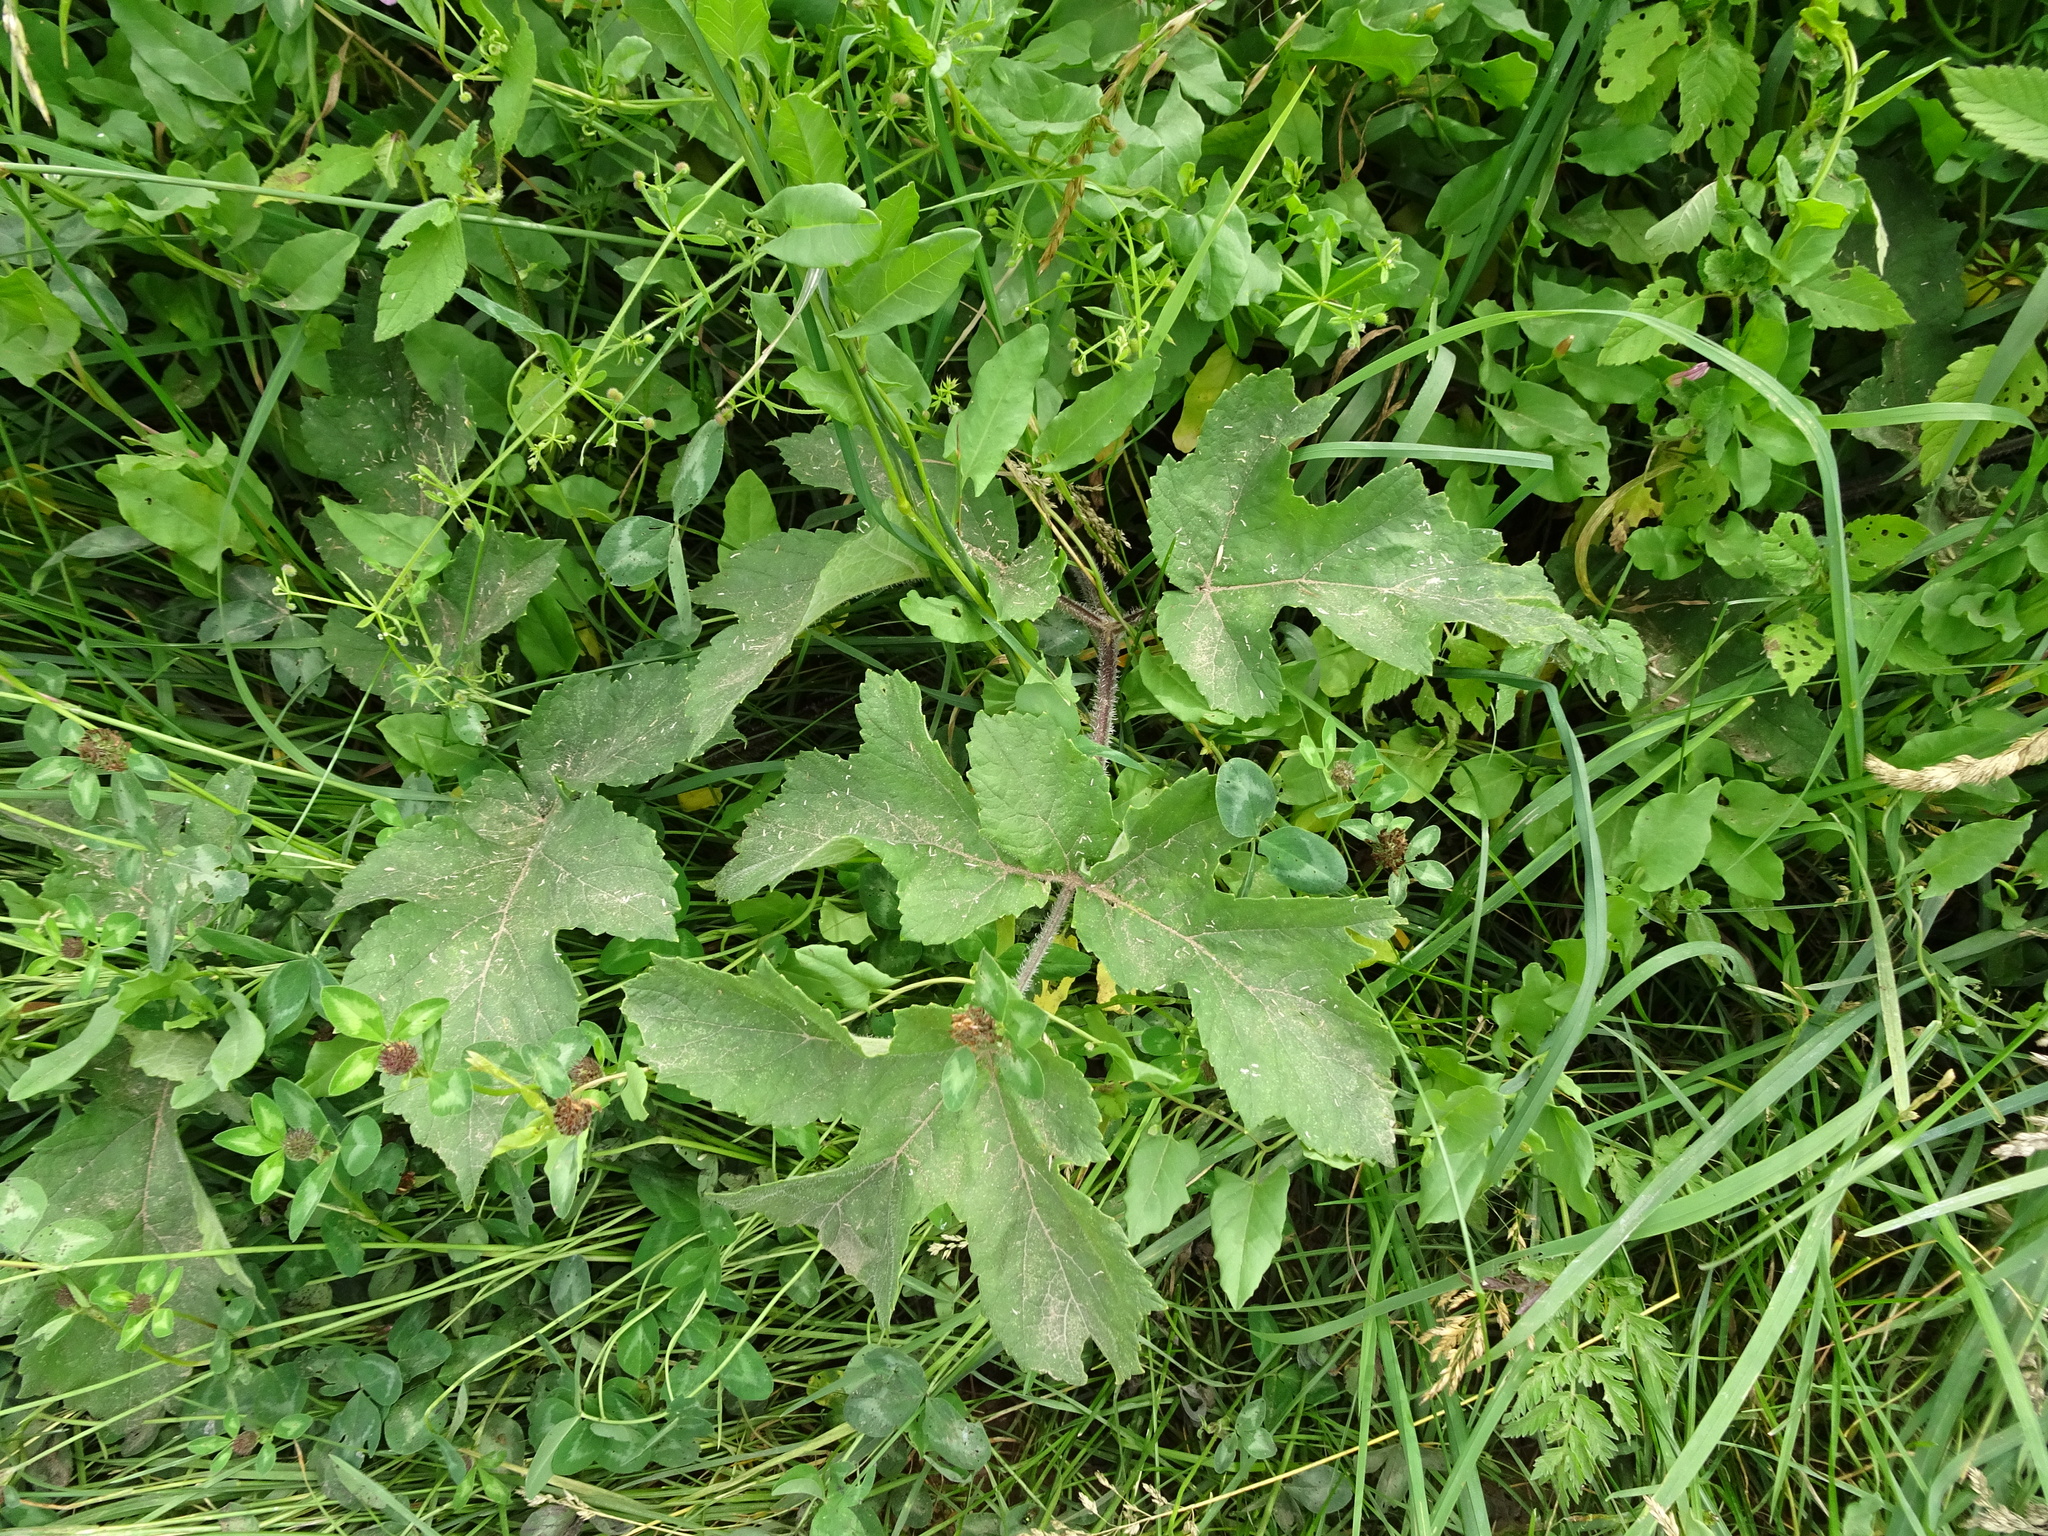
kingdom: Plantae
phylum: Tracheophyta
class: Magnoliopsida
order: Apiales
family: Apiaceae
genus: Heracleum
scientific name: Heracleum sphondylium
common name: Hogweed
